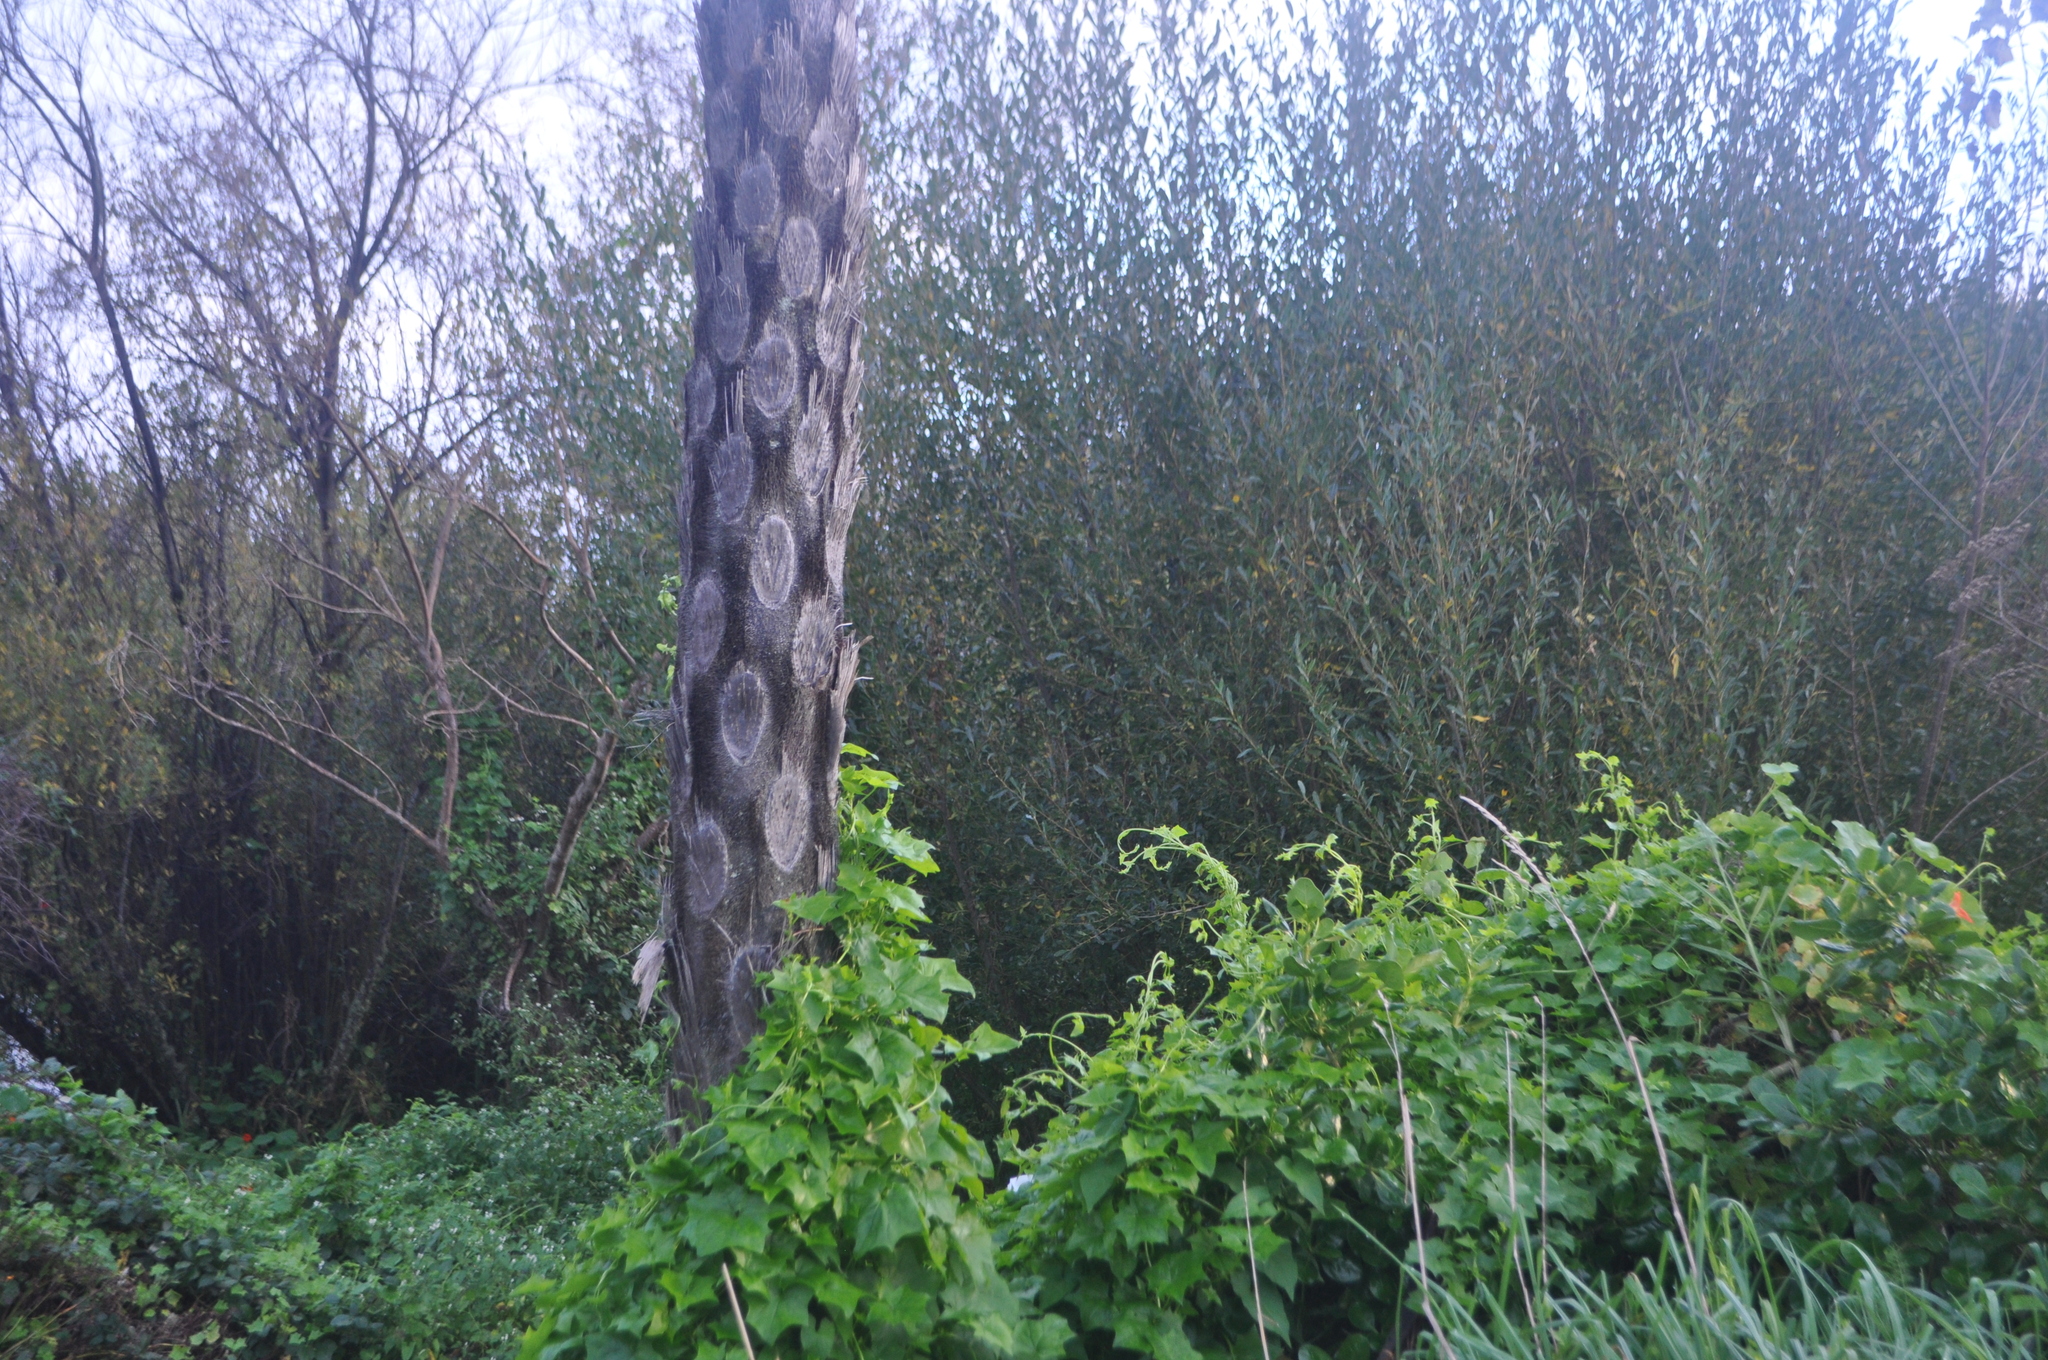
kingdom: Plantae
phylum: Tracheophyta
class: Polypodiopsida
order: Cyatheales
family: Cyatheaceae
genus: Sphaeropteris
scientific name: Sphaeropteris medullaris
